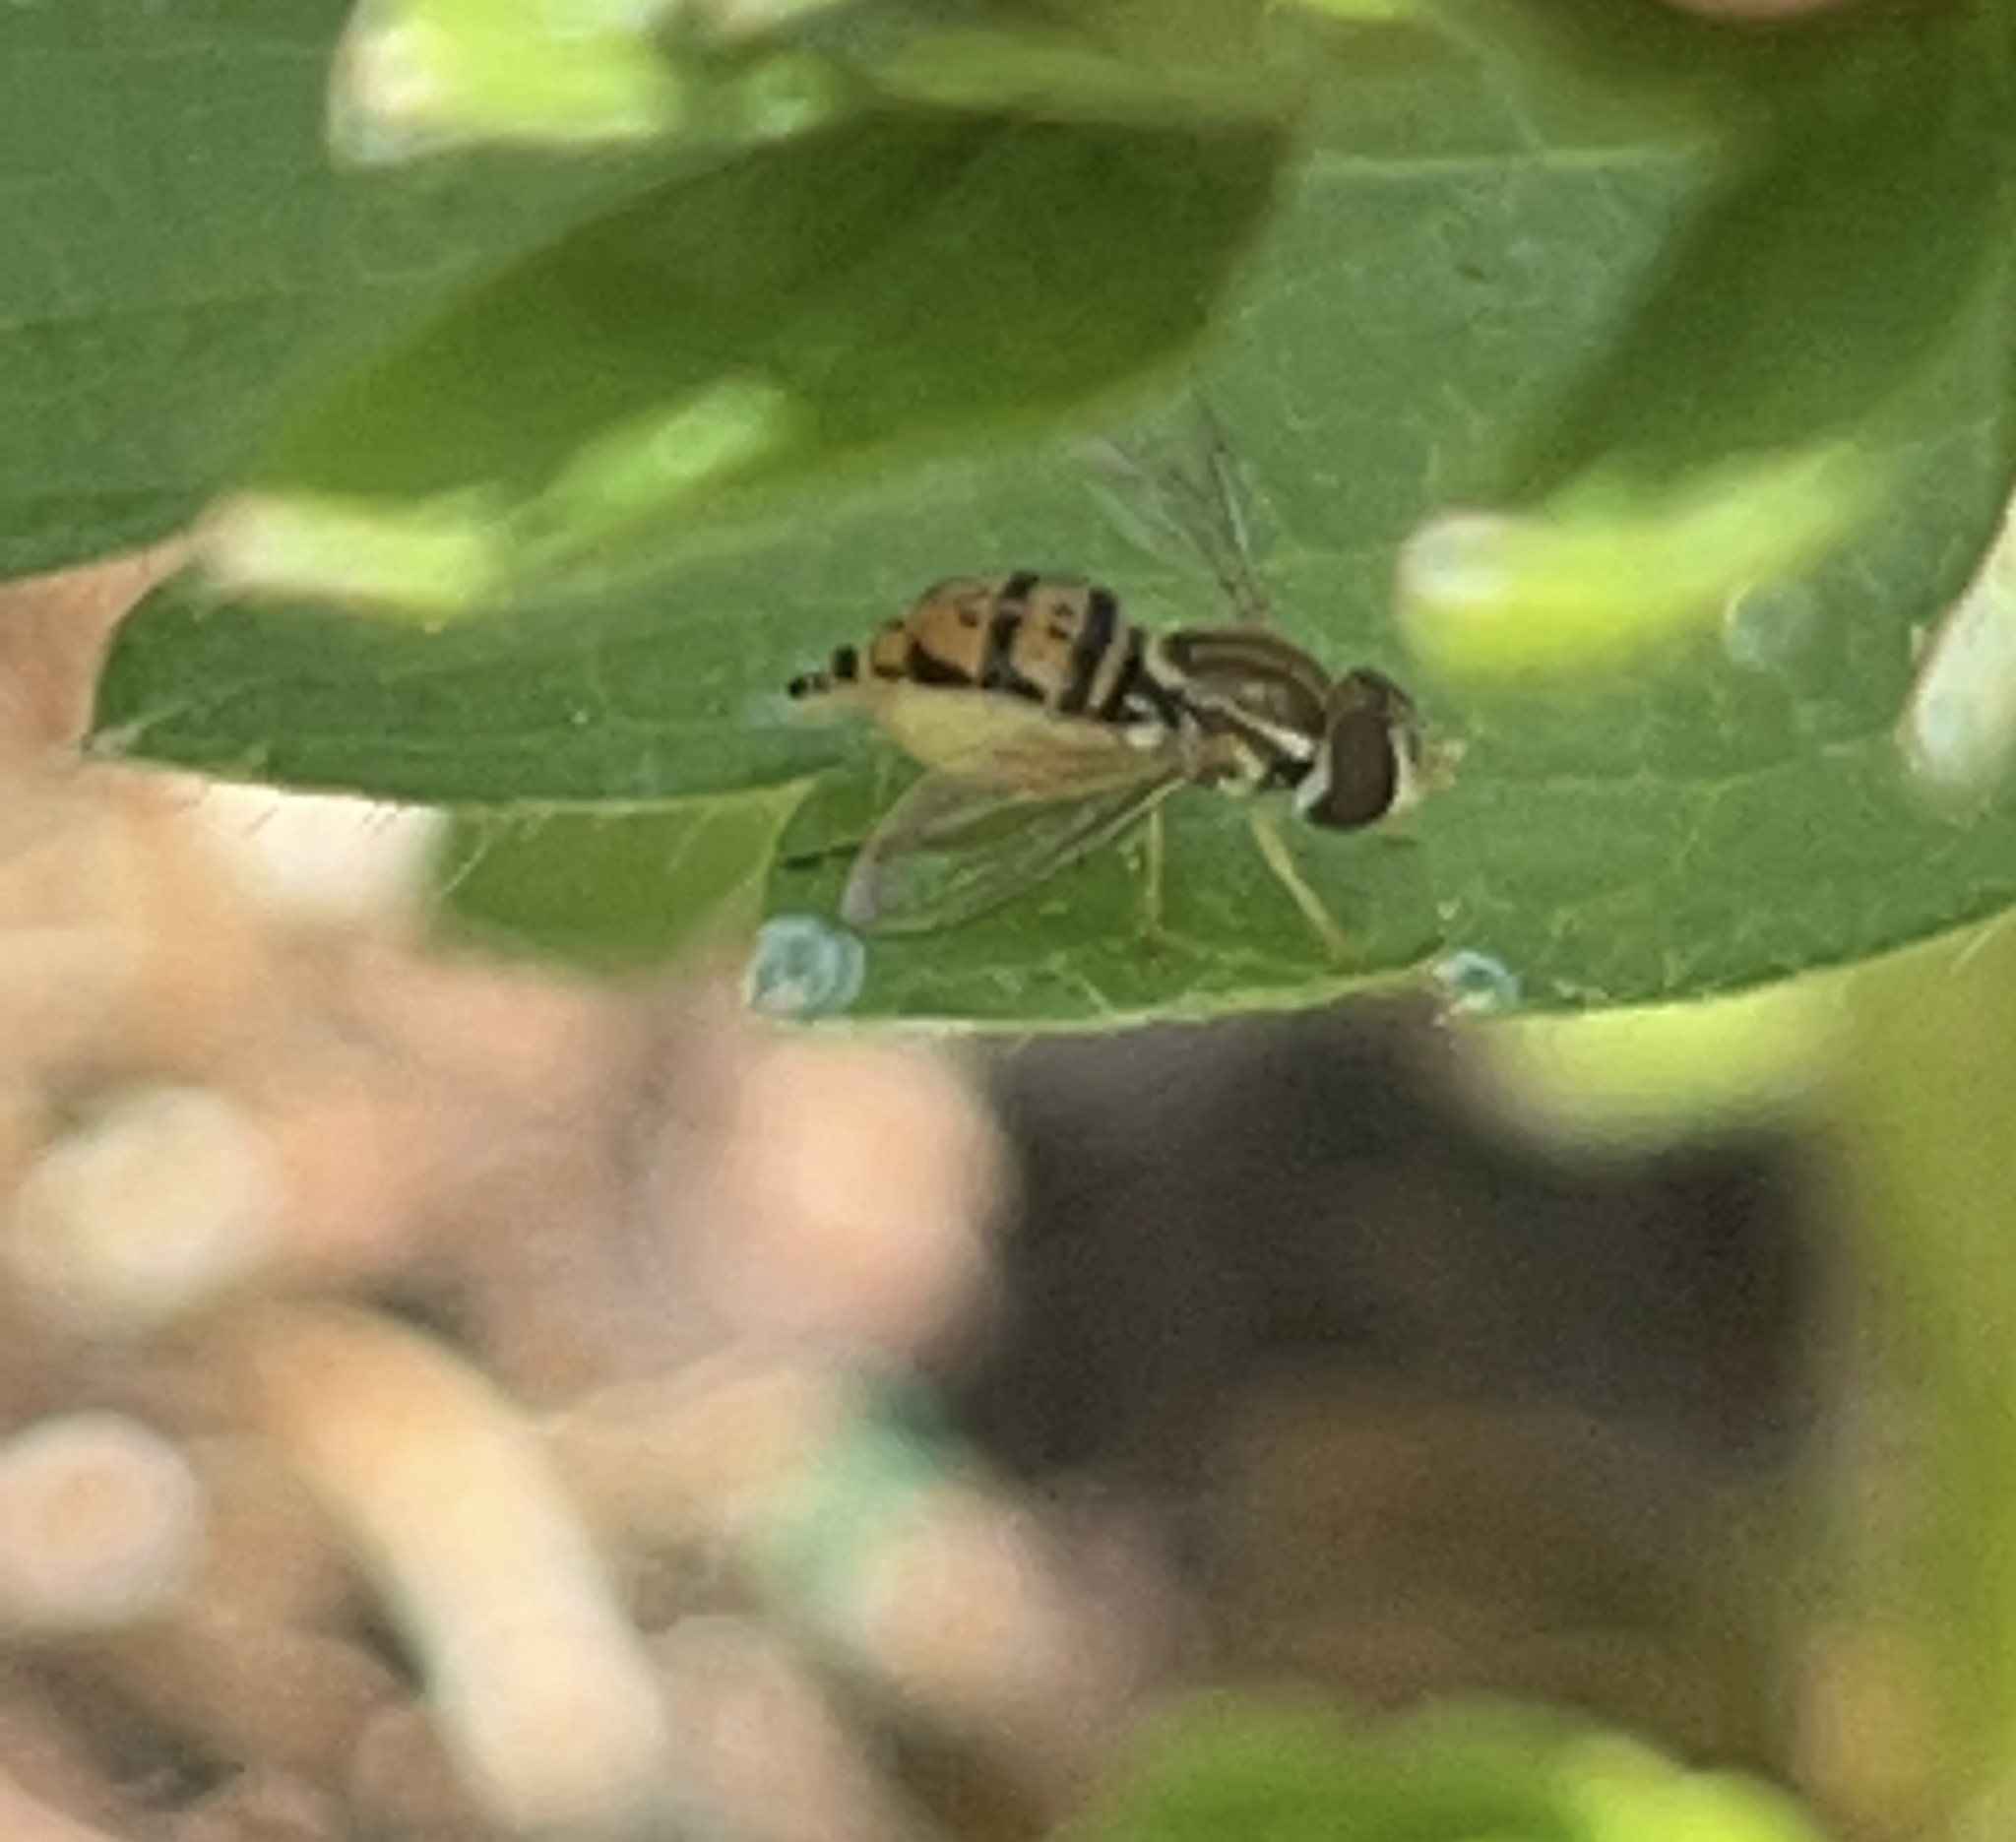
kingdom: Animalia
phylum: Arthropoda
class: Insecta
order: Diptera
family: Syrphidae
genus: Toxomerus
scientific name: Toxomerus marginatus
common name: Syrphid fly
